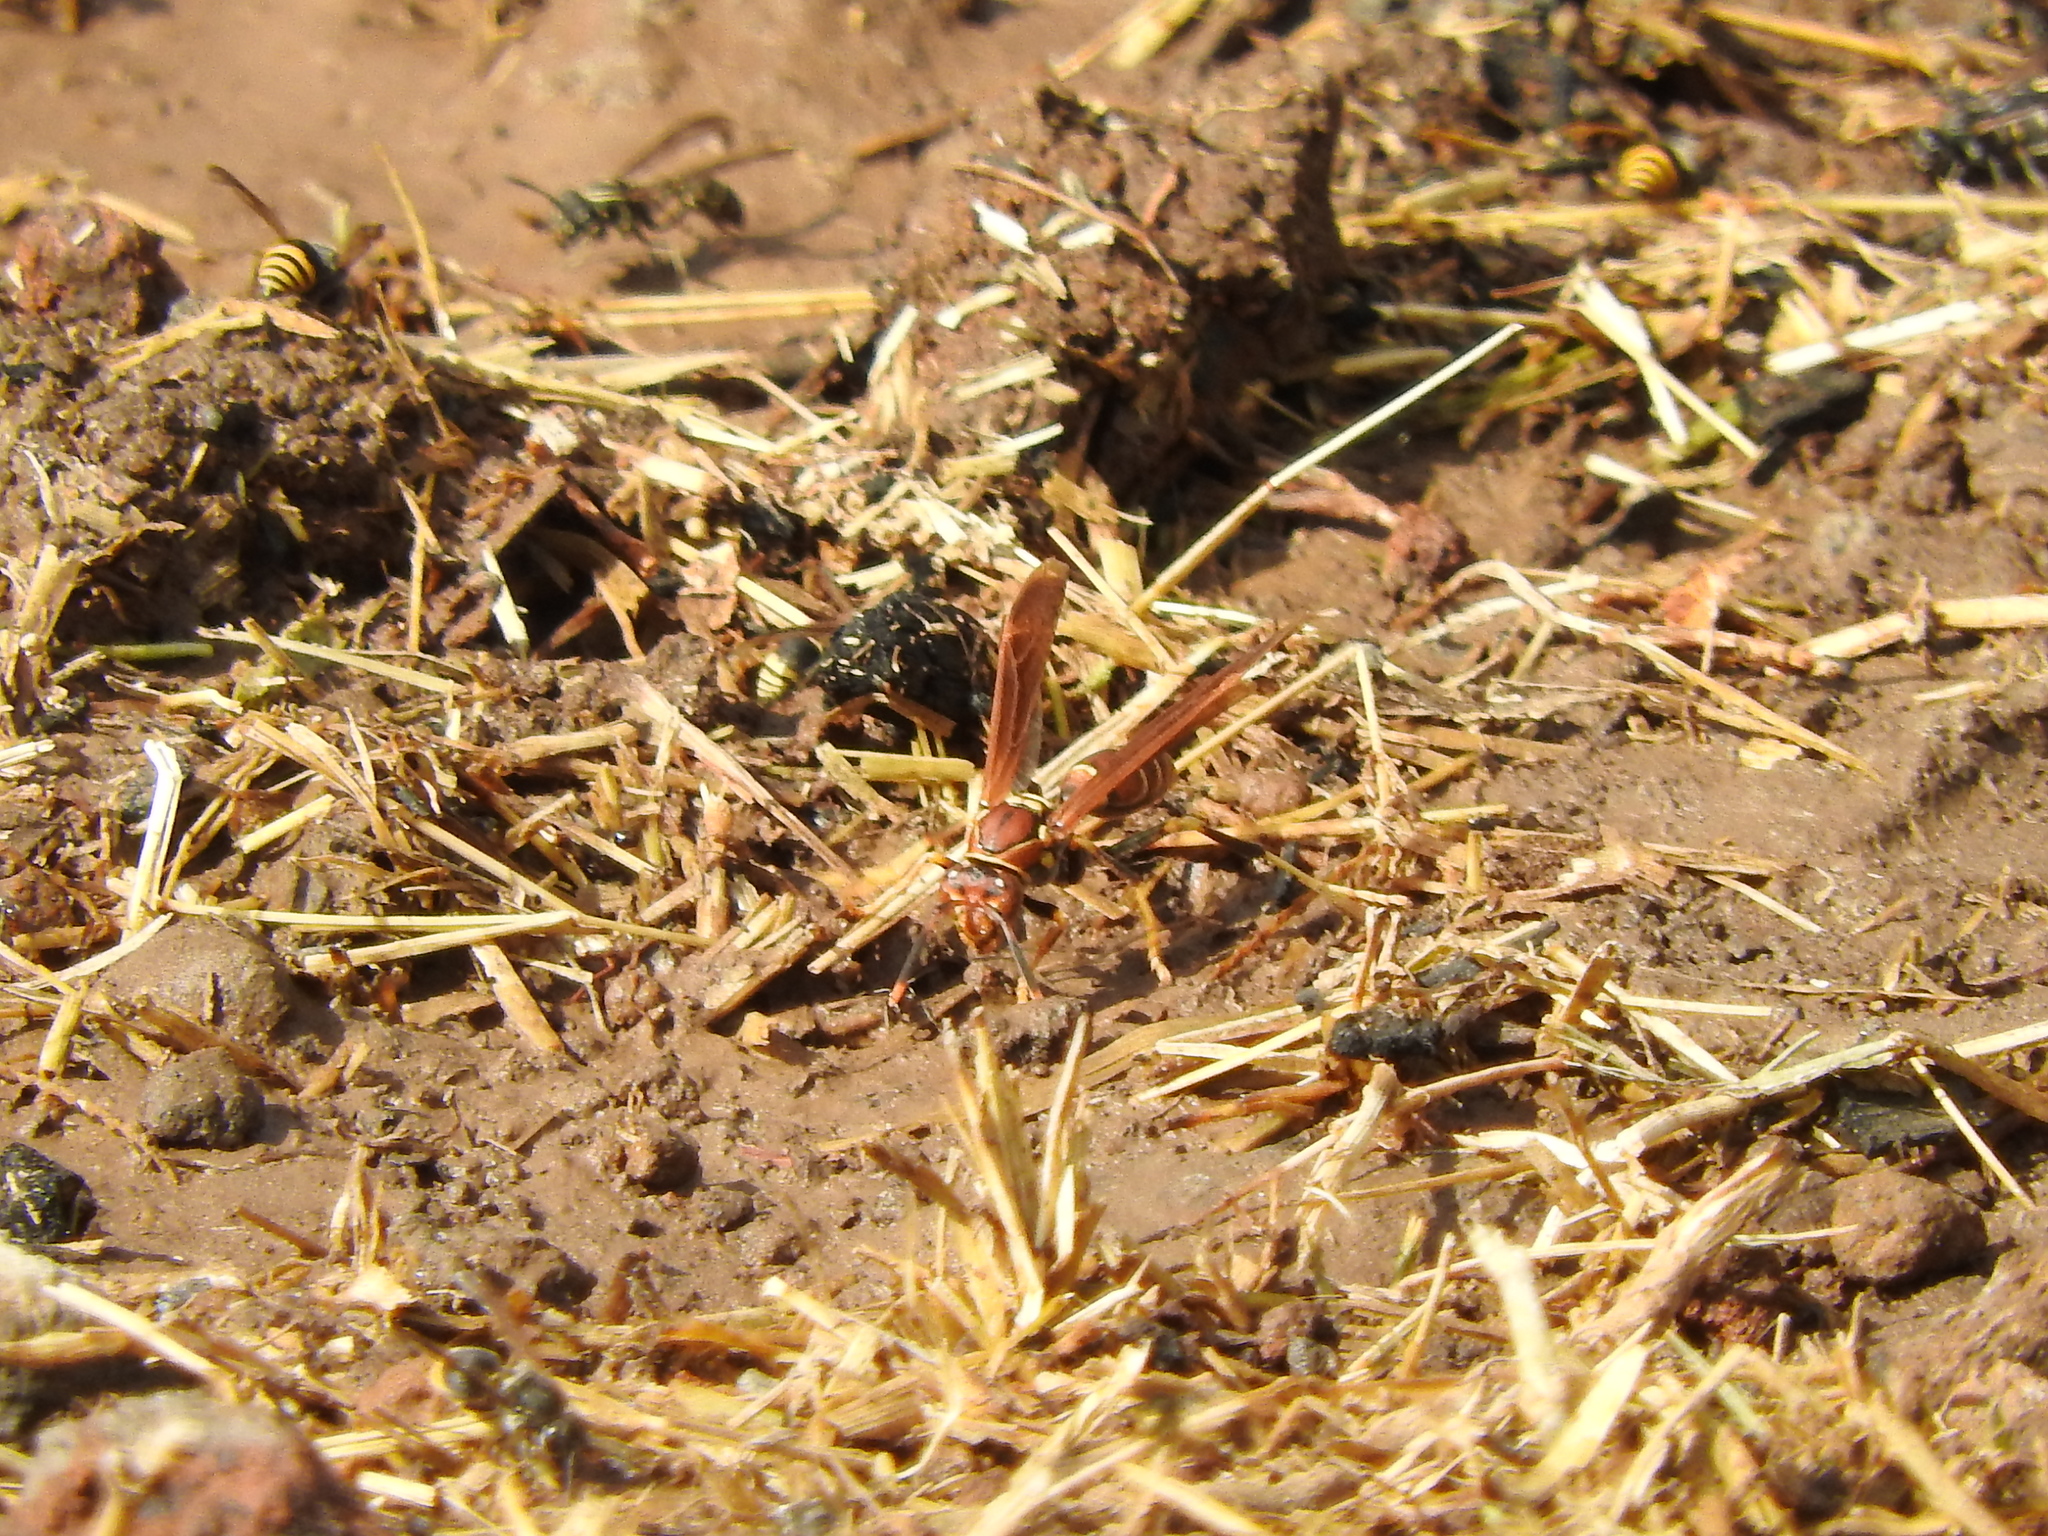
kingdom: Animalia
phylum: Arthropoda
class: Insecta
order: Hymenoptera
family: Eumenidae
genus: Polistes
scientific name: Polistes instabilis
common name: Unstable paper wasp
